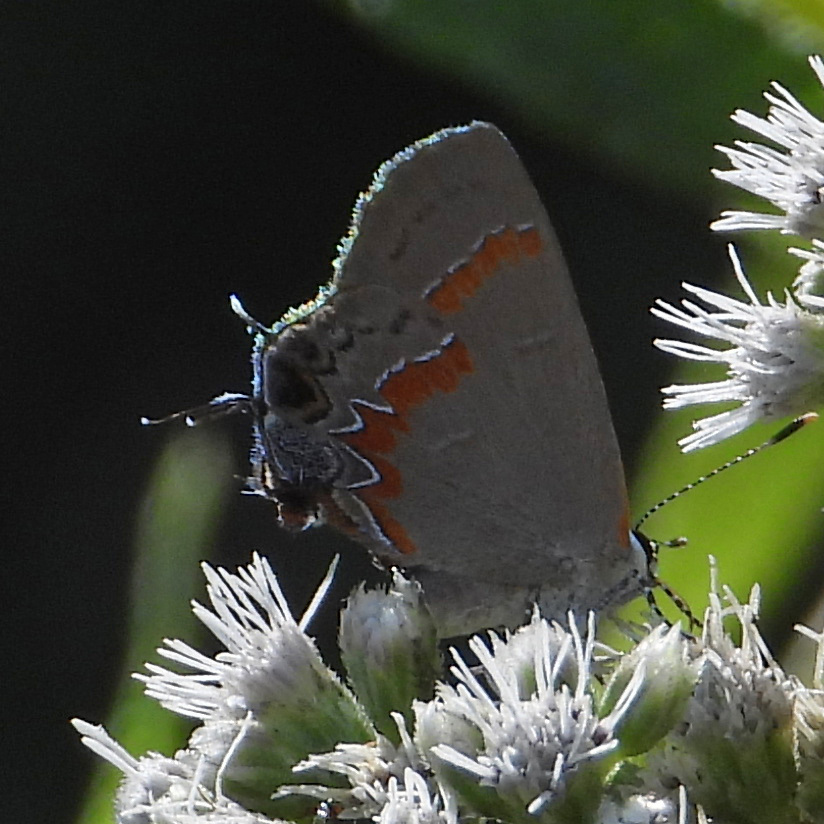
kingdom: Animalia
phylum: Arthropoda
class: Insecta
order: Lepidoptera
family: Lycaenidae
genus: Calycopis
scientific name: Calycopis cecrops
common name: Red-banded hairstreak
